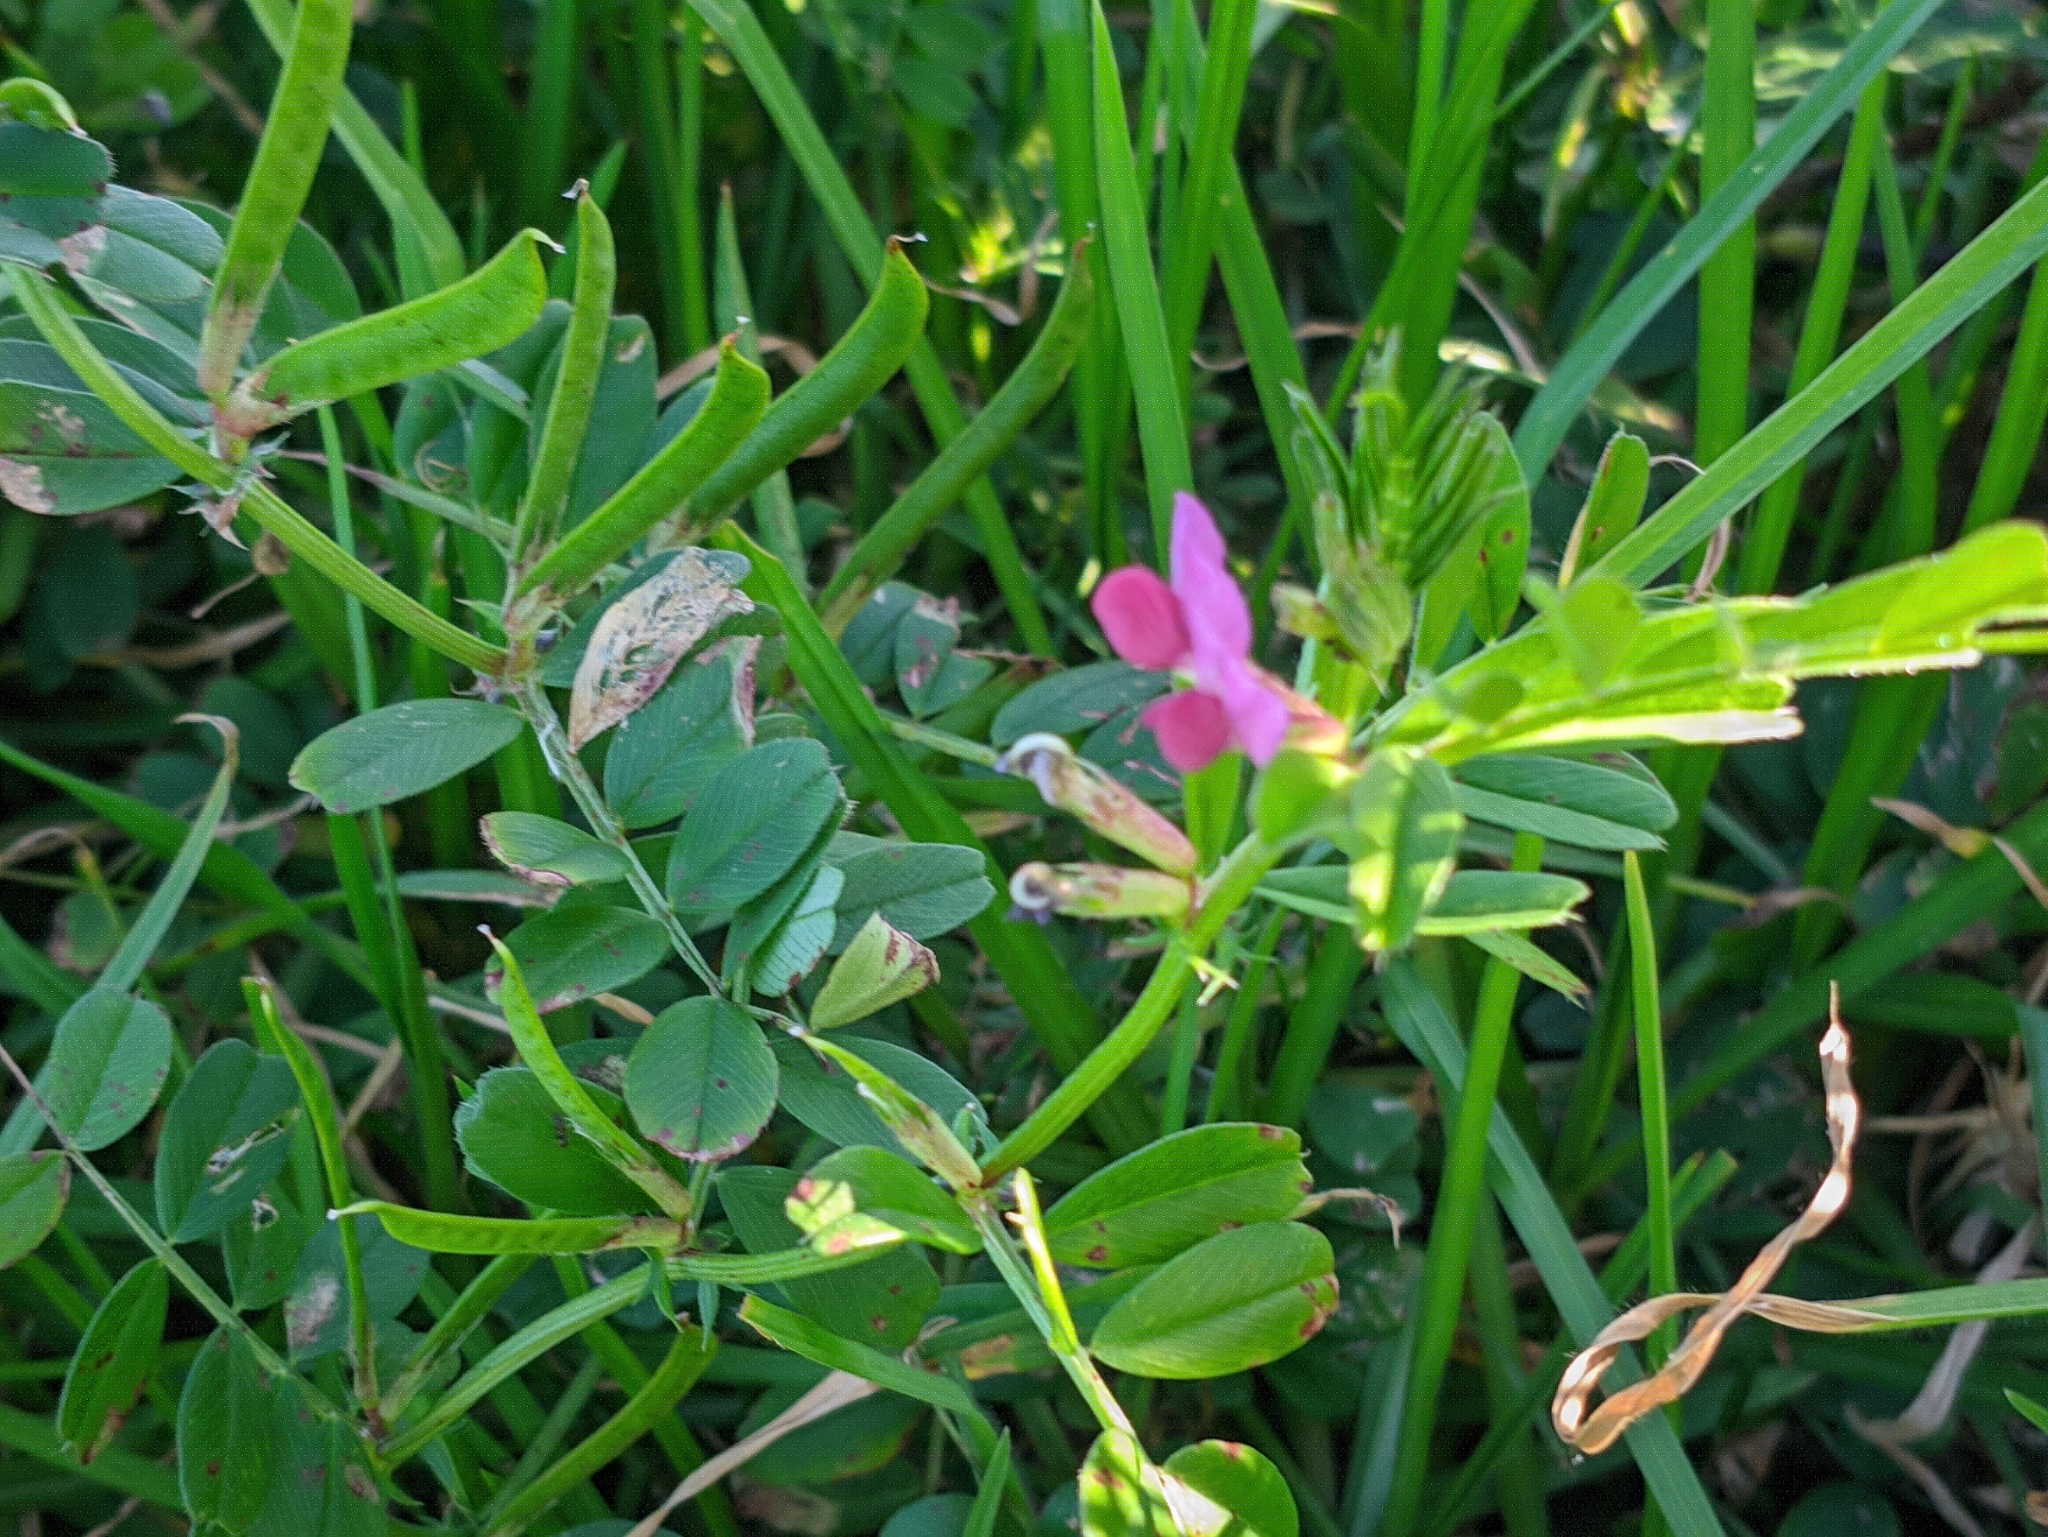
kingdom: Plantae
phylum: Tracheophyta
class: Magnoliopsida
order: Fabales
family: Fabaceae
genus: Vicia
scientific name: Vicia sativa
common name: Garden vetch
